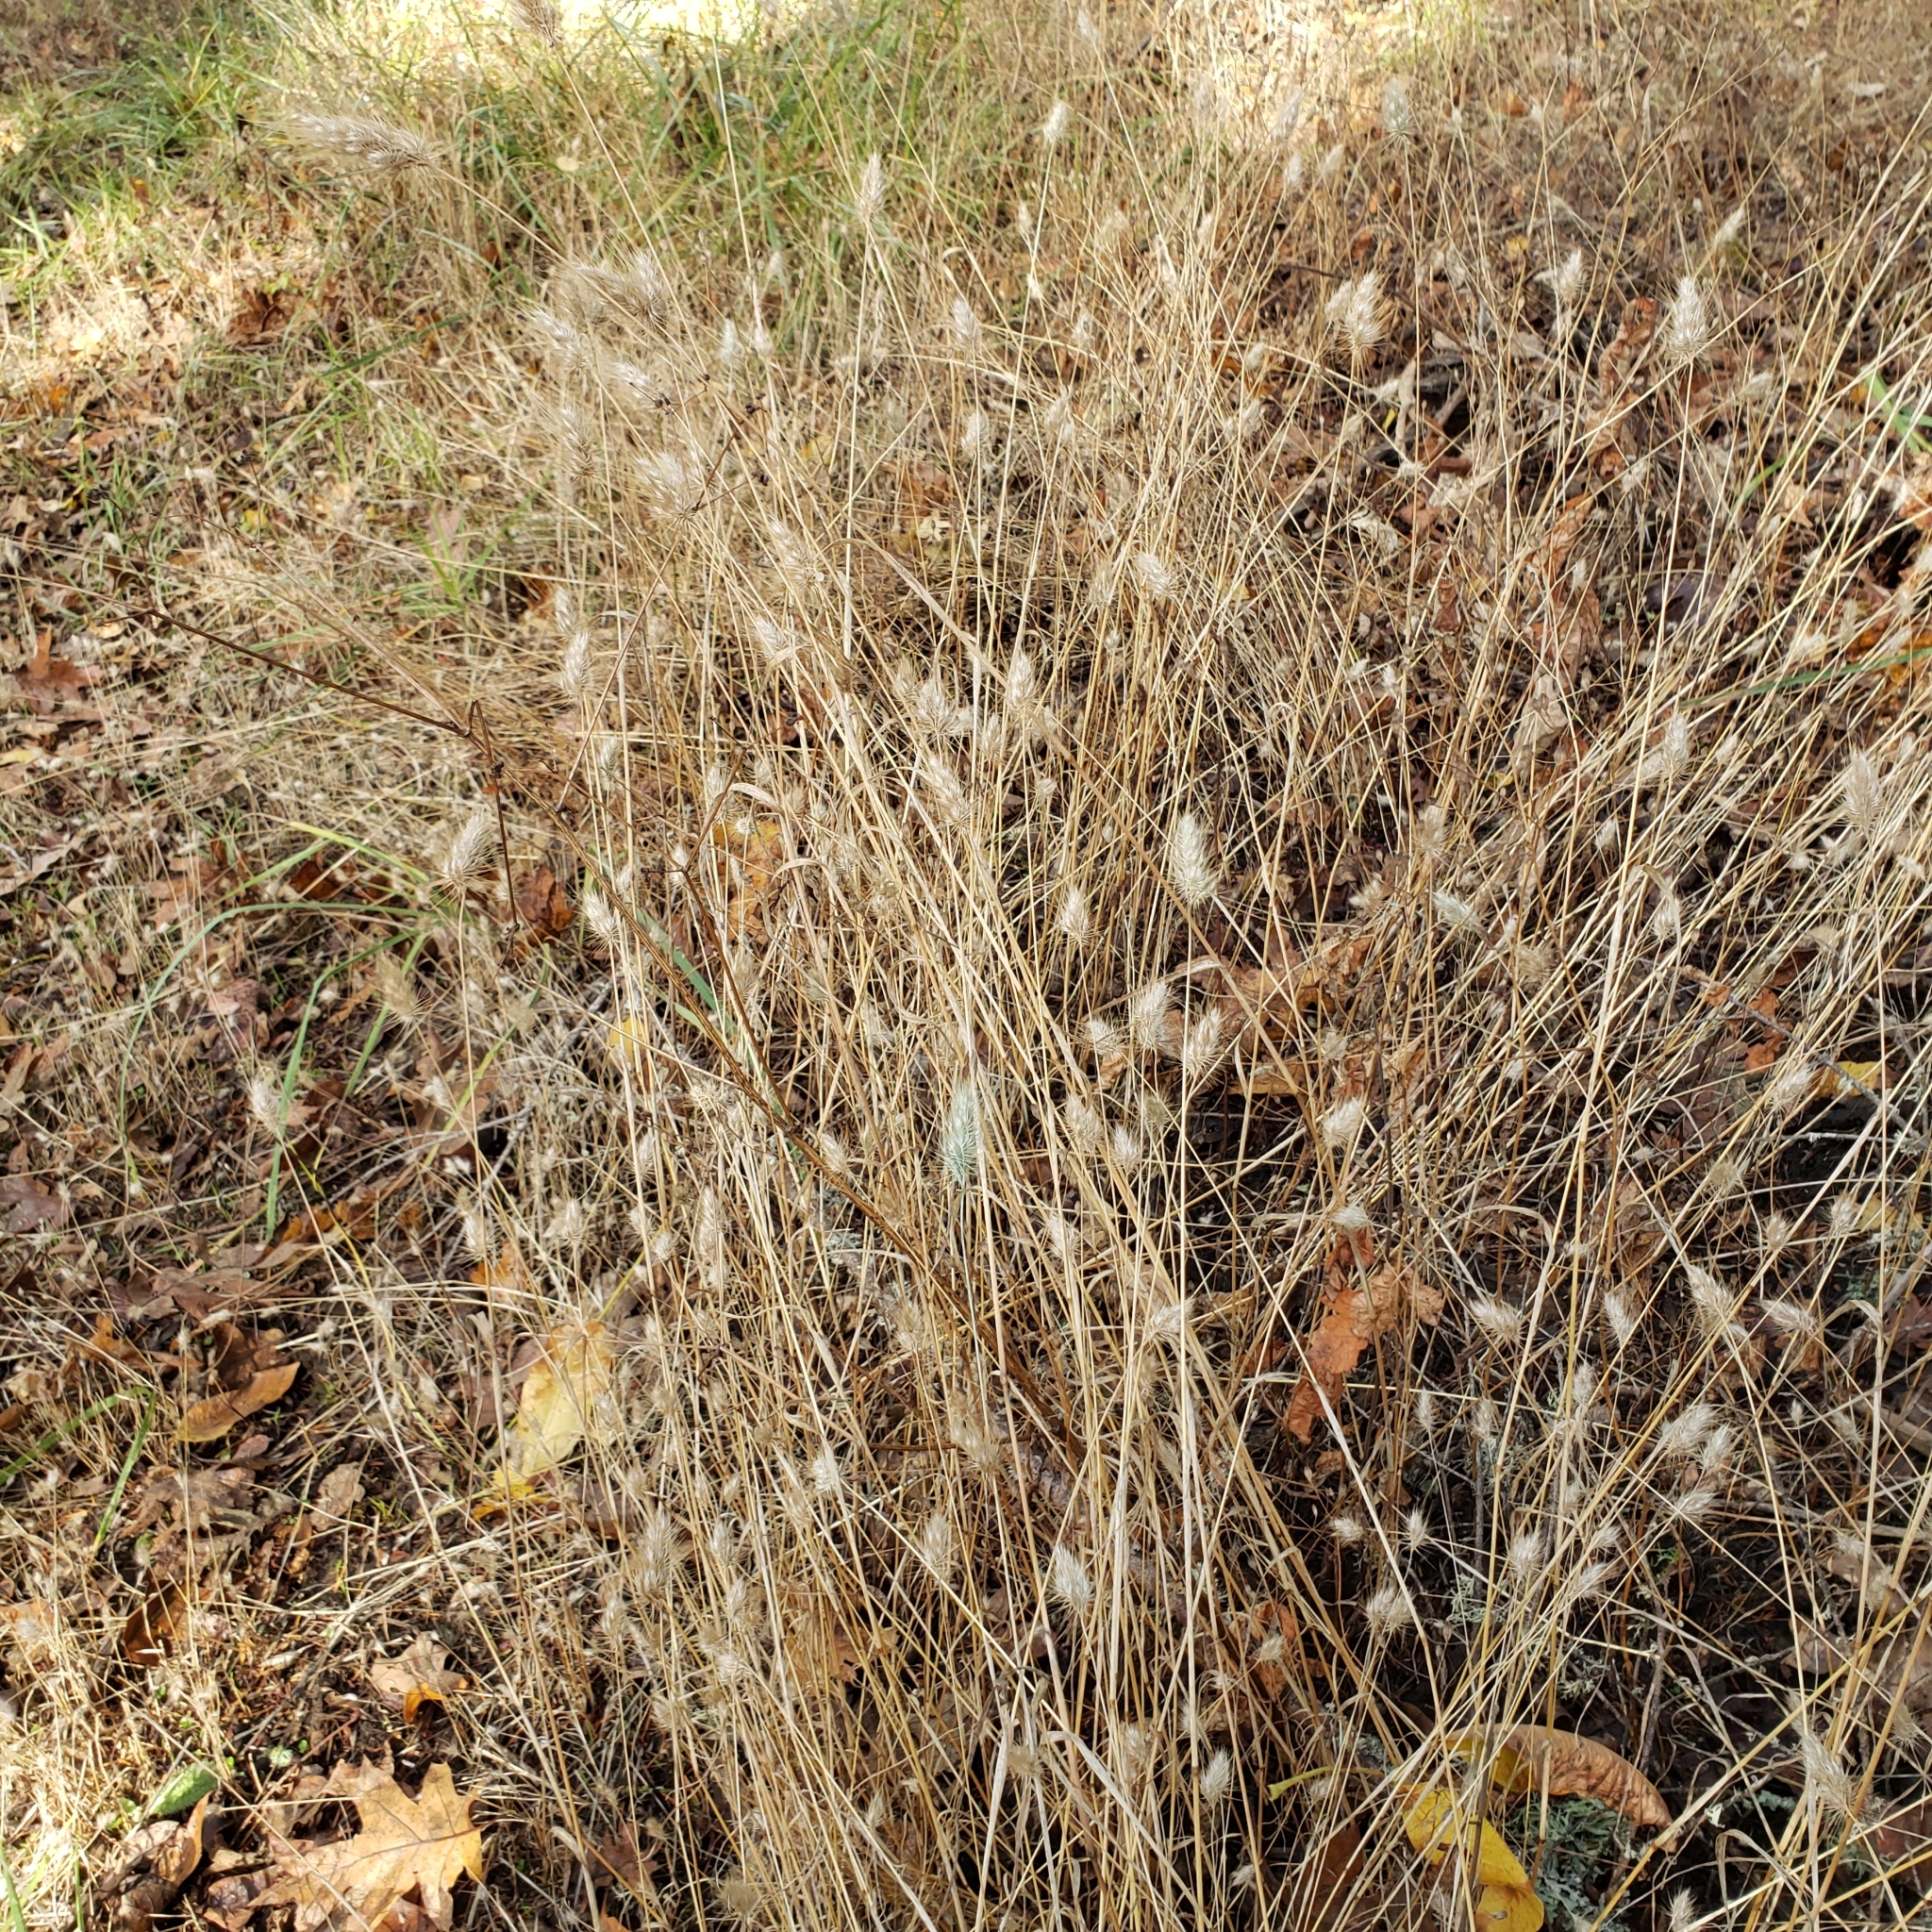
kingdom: Plantae
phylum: Tracheophyta
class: Liliopsida
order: Poales
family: Poaceae
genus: Cynosurus
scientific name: Cynosurus echinatus
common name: Rough dog's-tail
